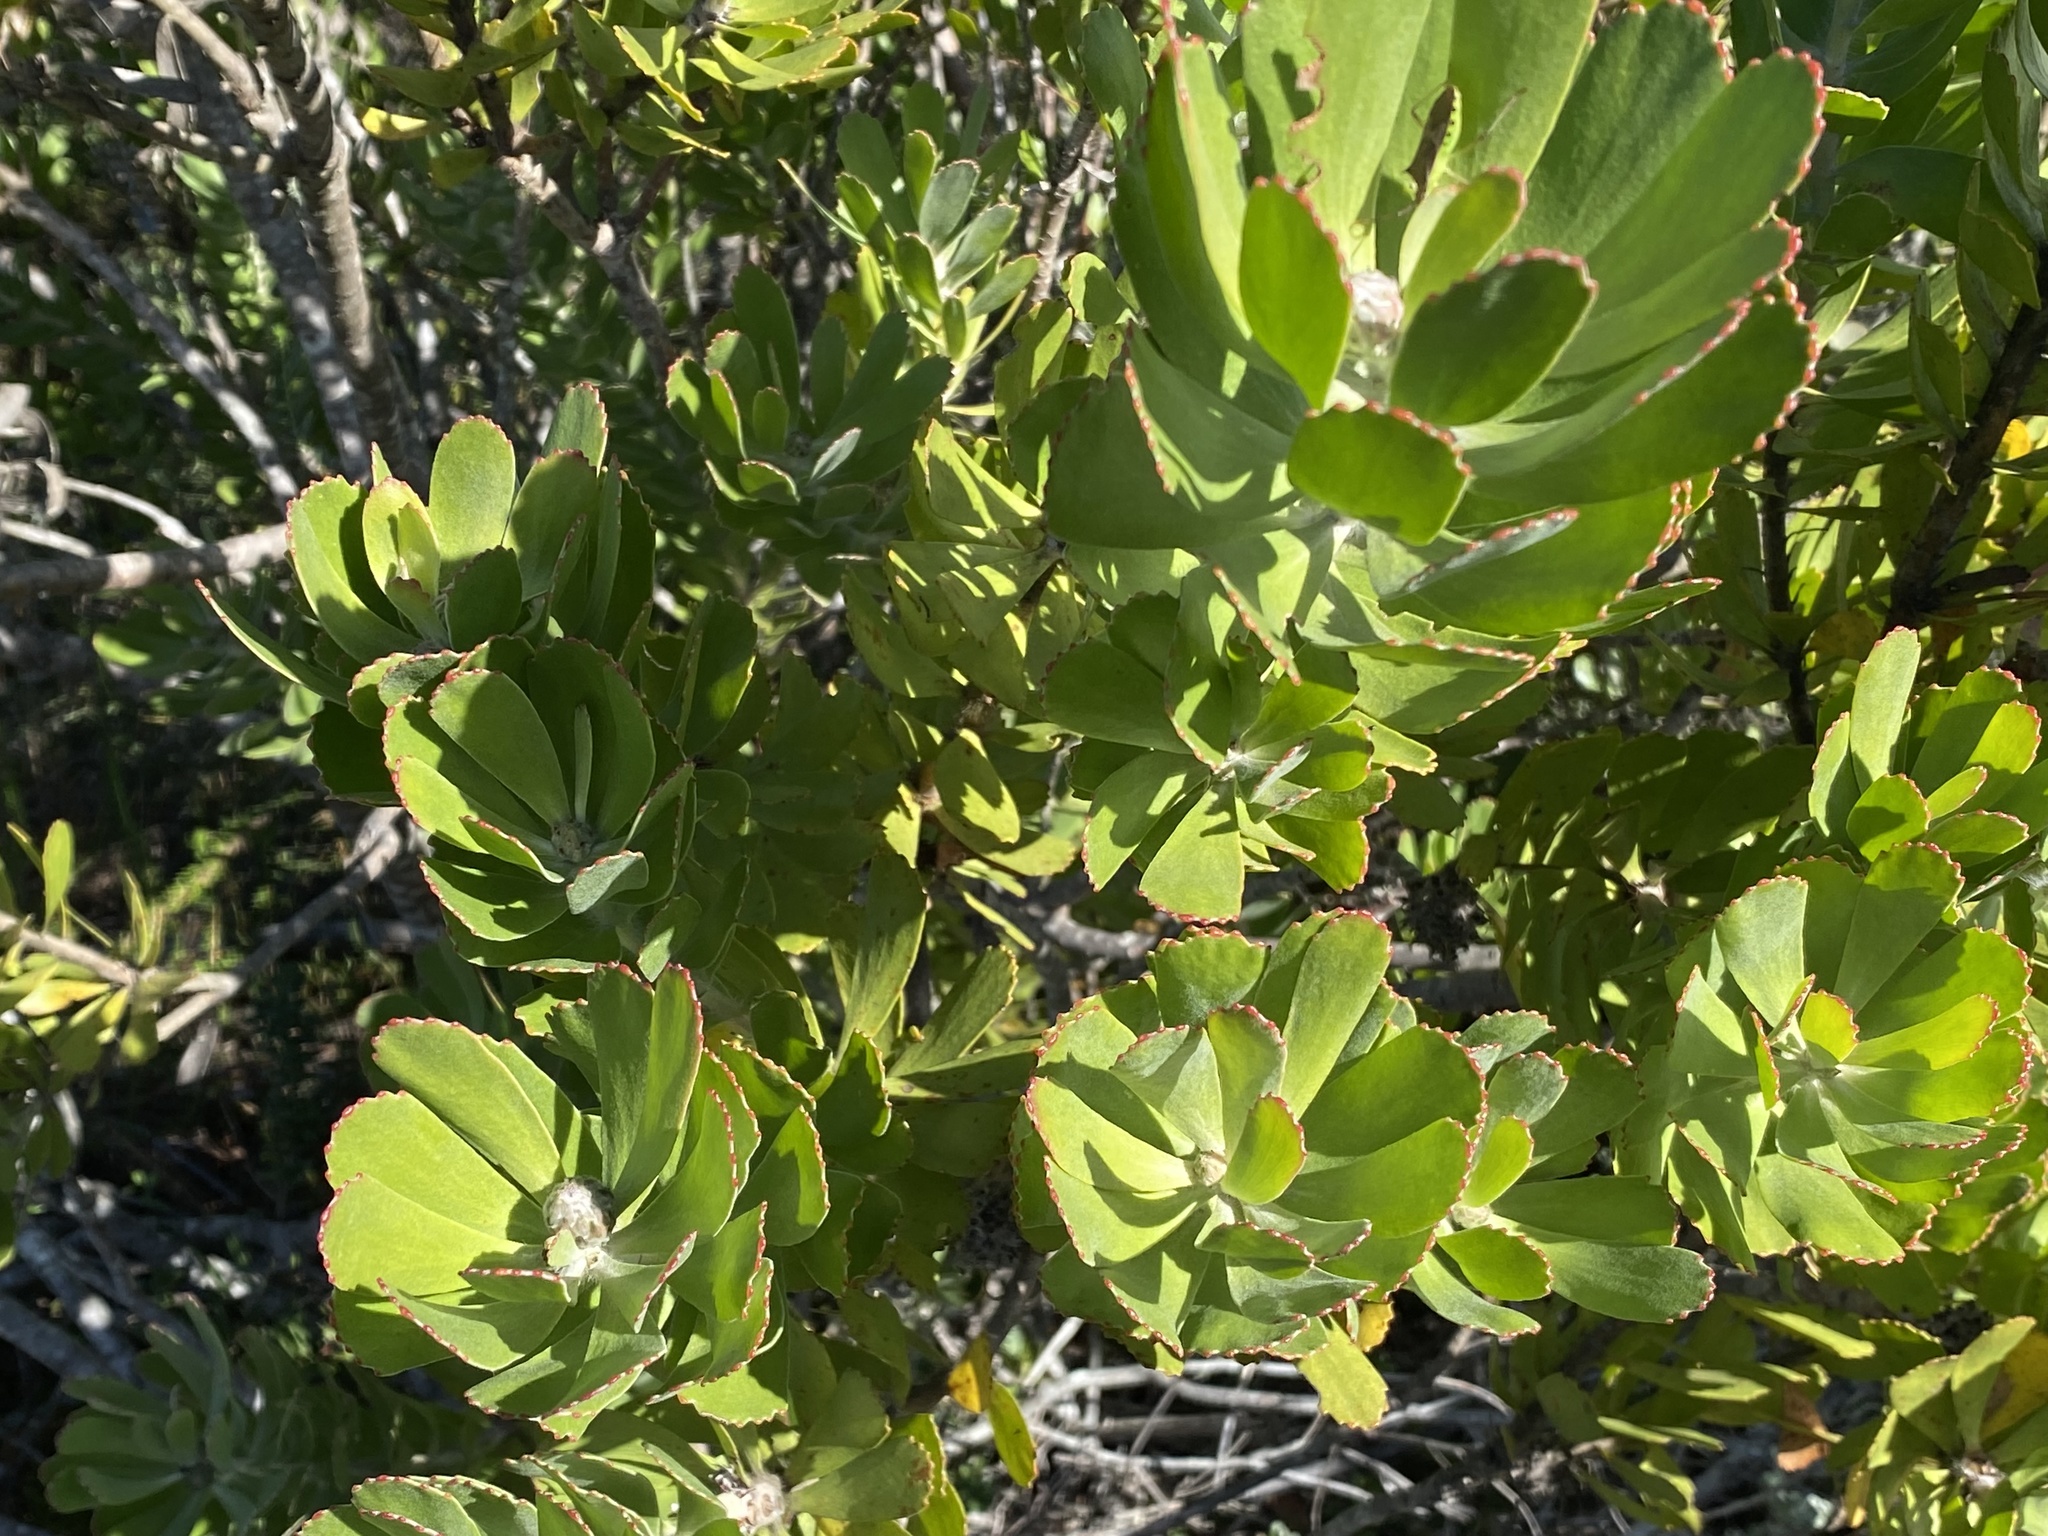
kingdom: Plantae
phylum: Tracheophyta
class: Magnoliopsida
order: Proteales
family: Proteaceae
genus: Leucospermum
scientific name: Leucospermum praecox
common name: Mossel bay pincushion
